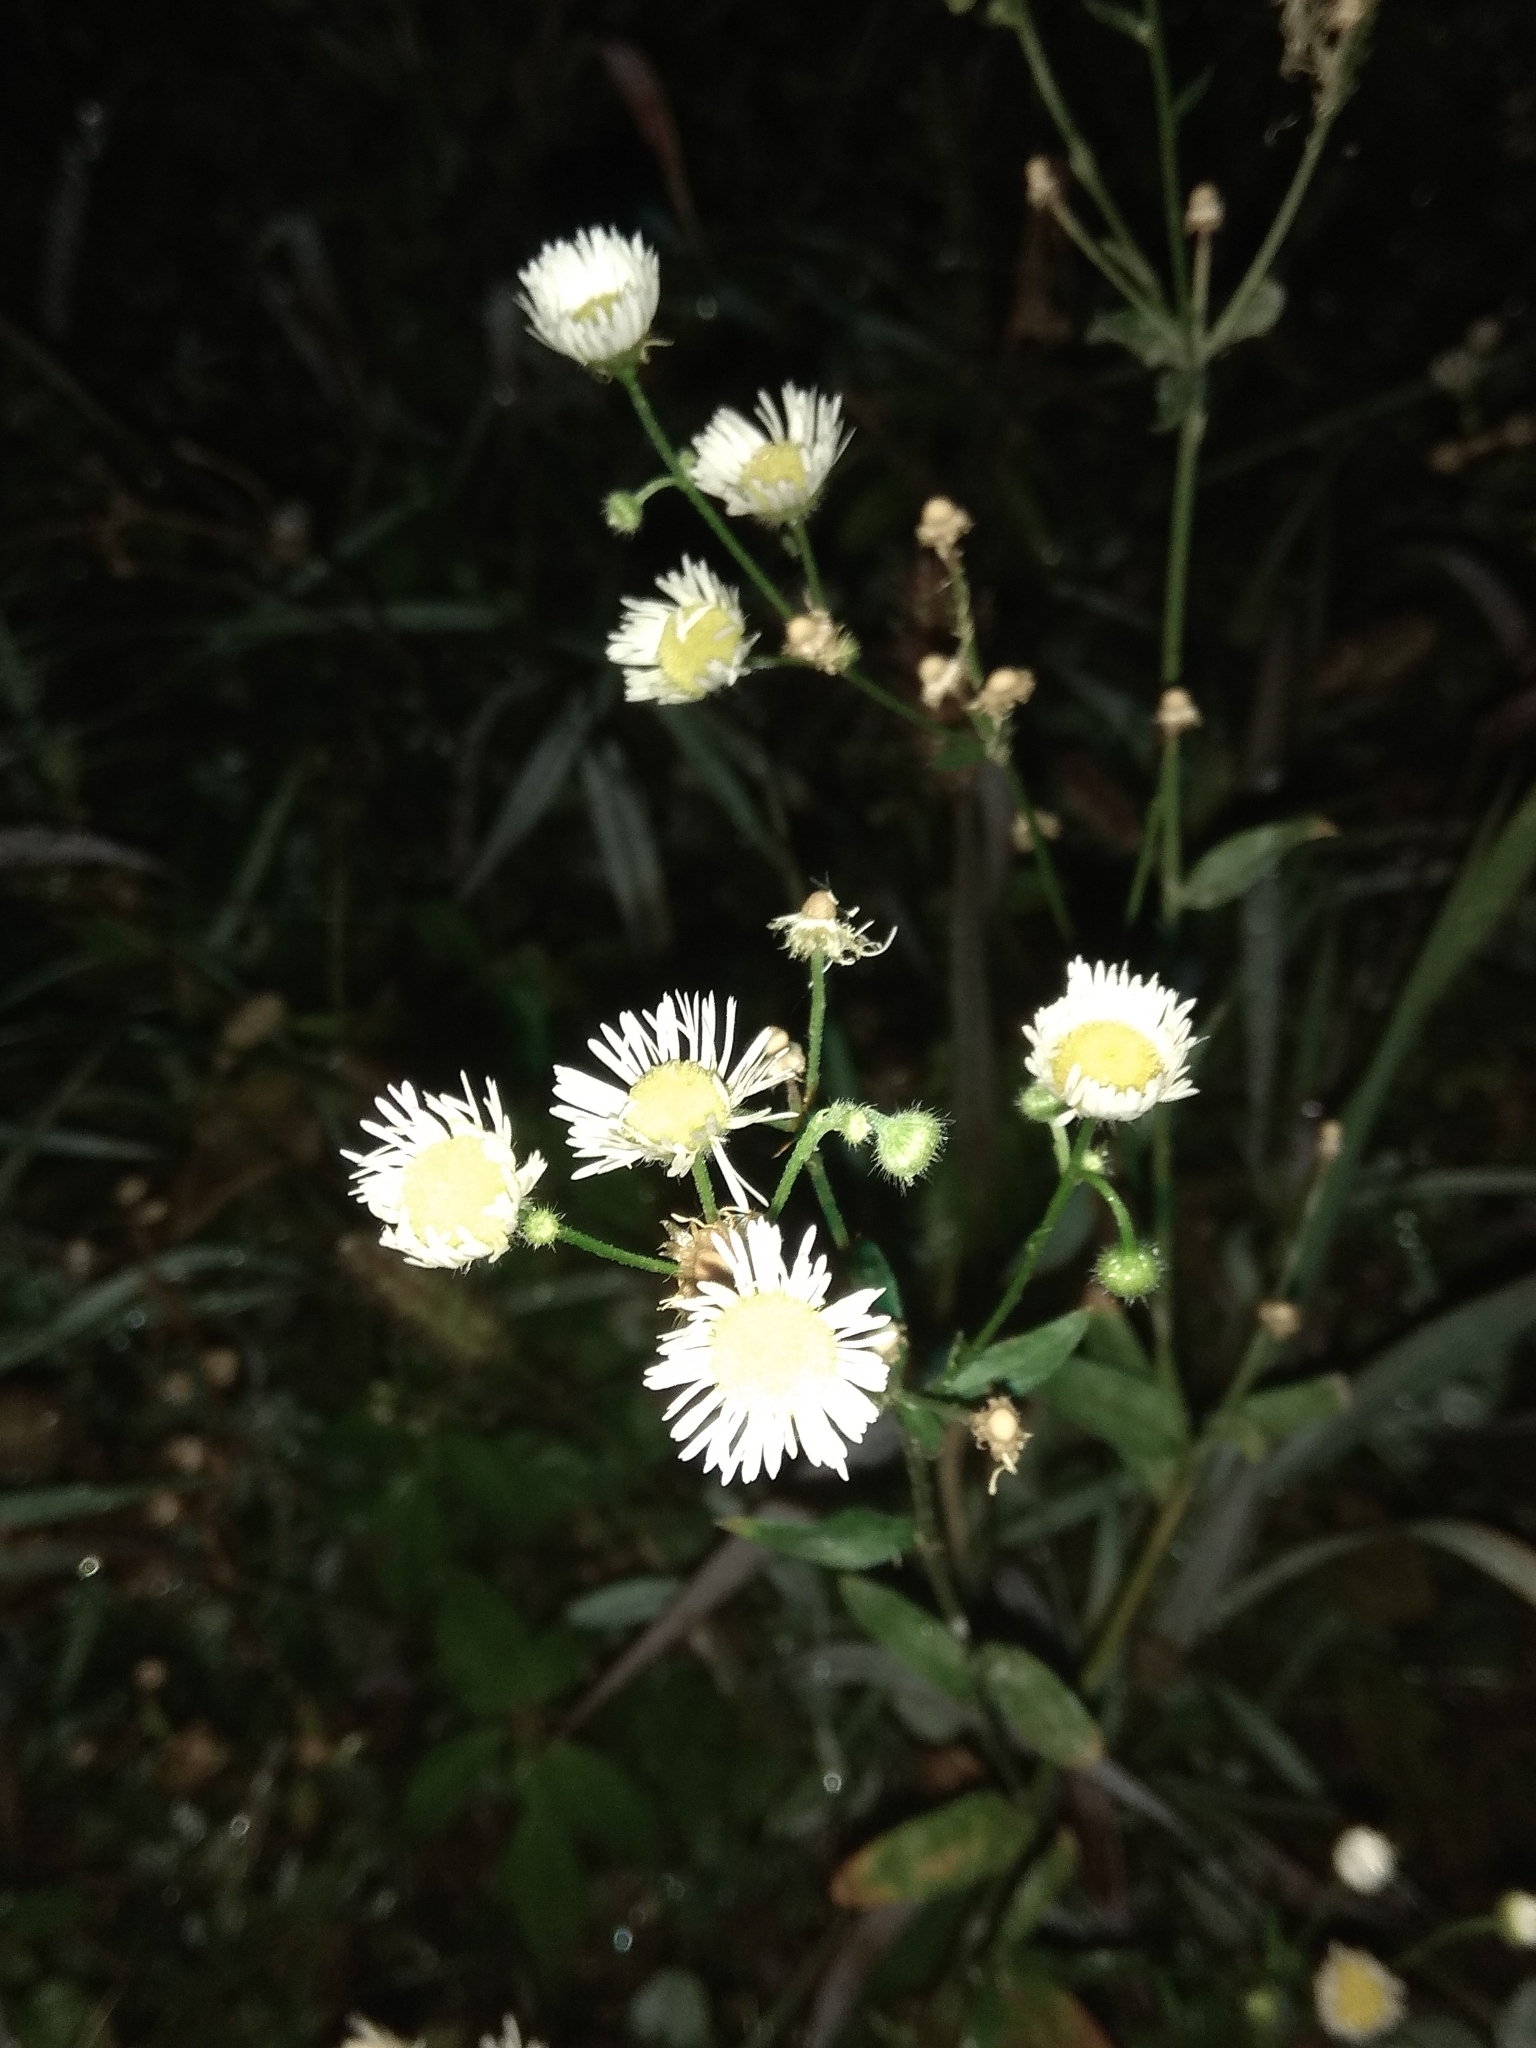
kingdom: Plantae
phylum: Tracheophyta
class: Magnoliopsida
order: Asterales
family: Asteraceae
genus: Erigeron
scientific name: Erigeron annuus
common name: Tall fleabane
